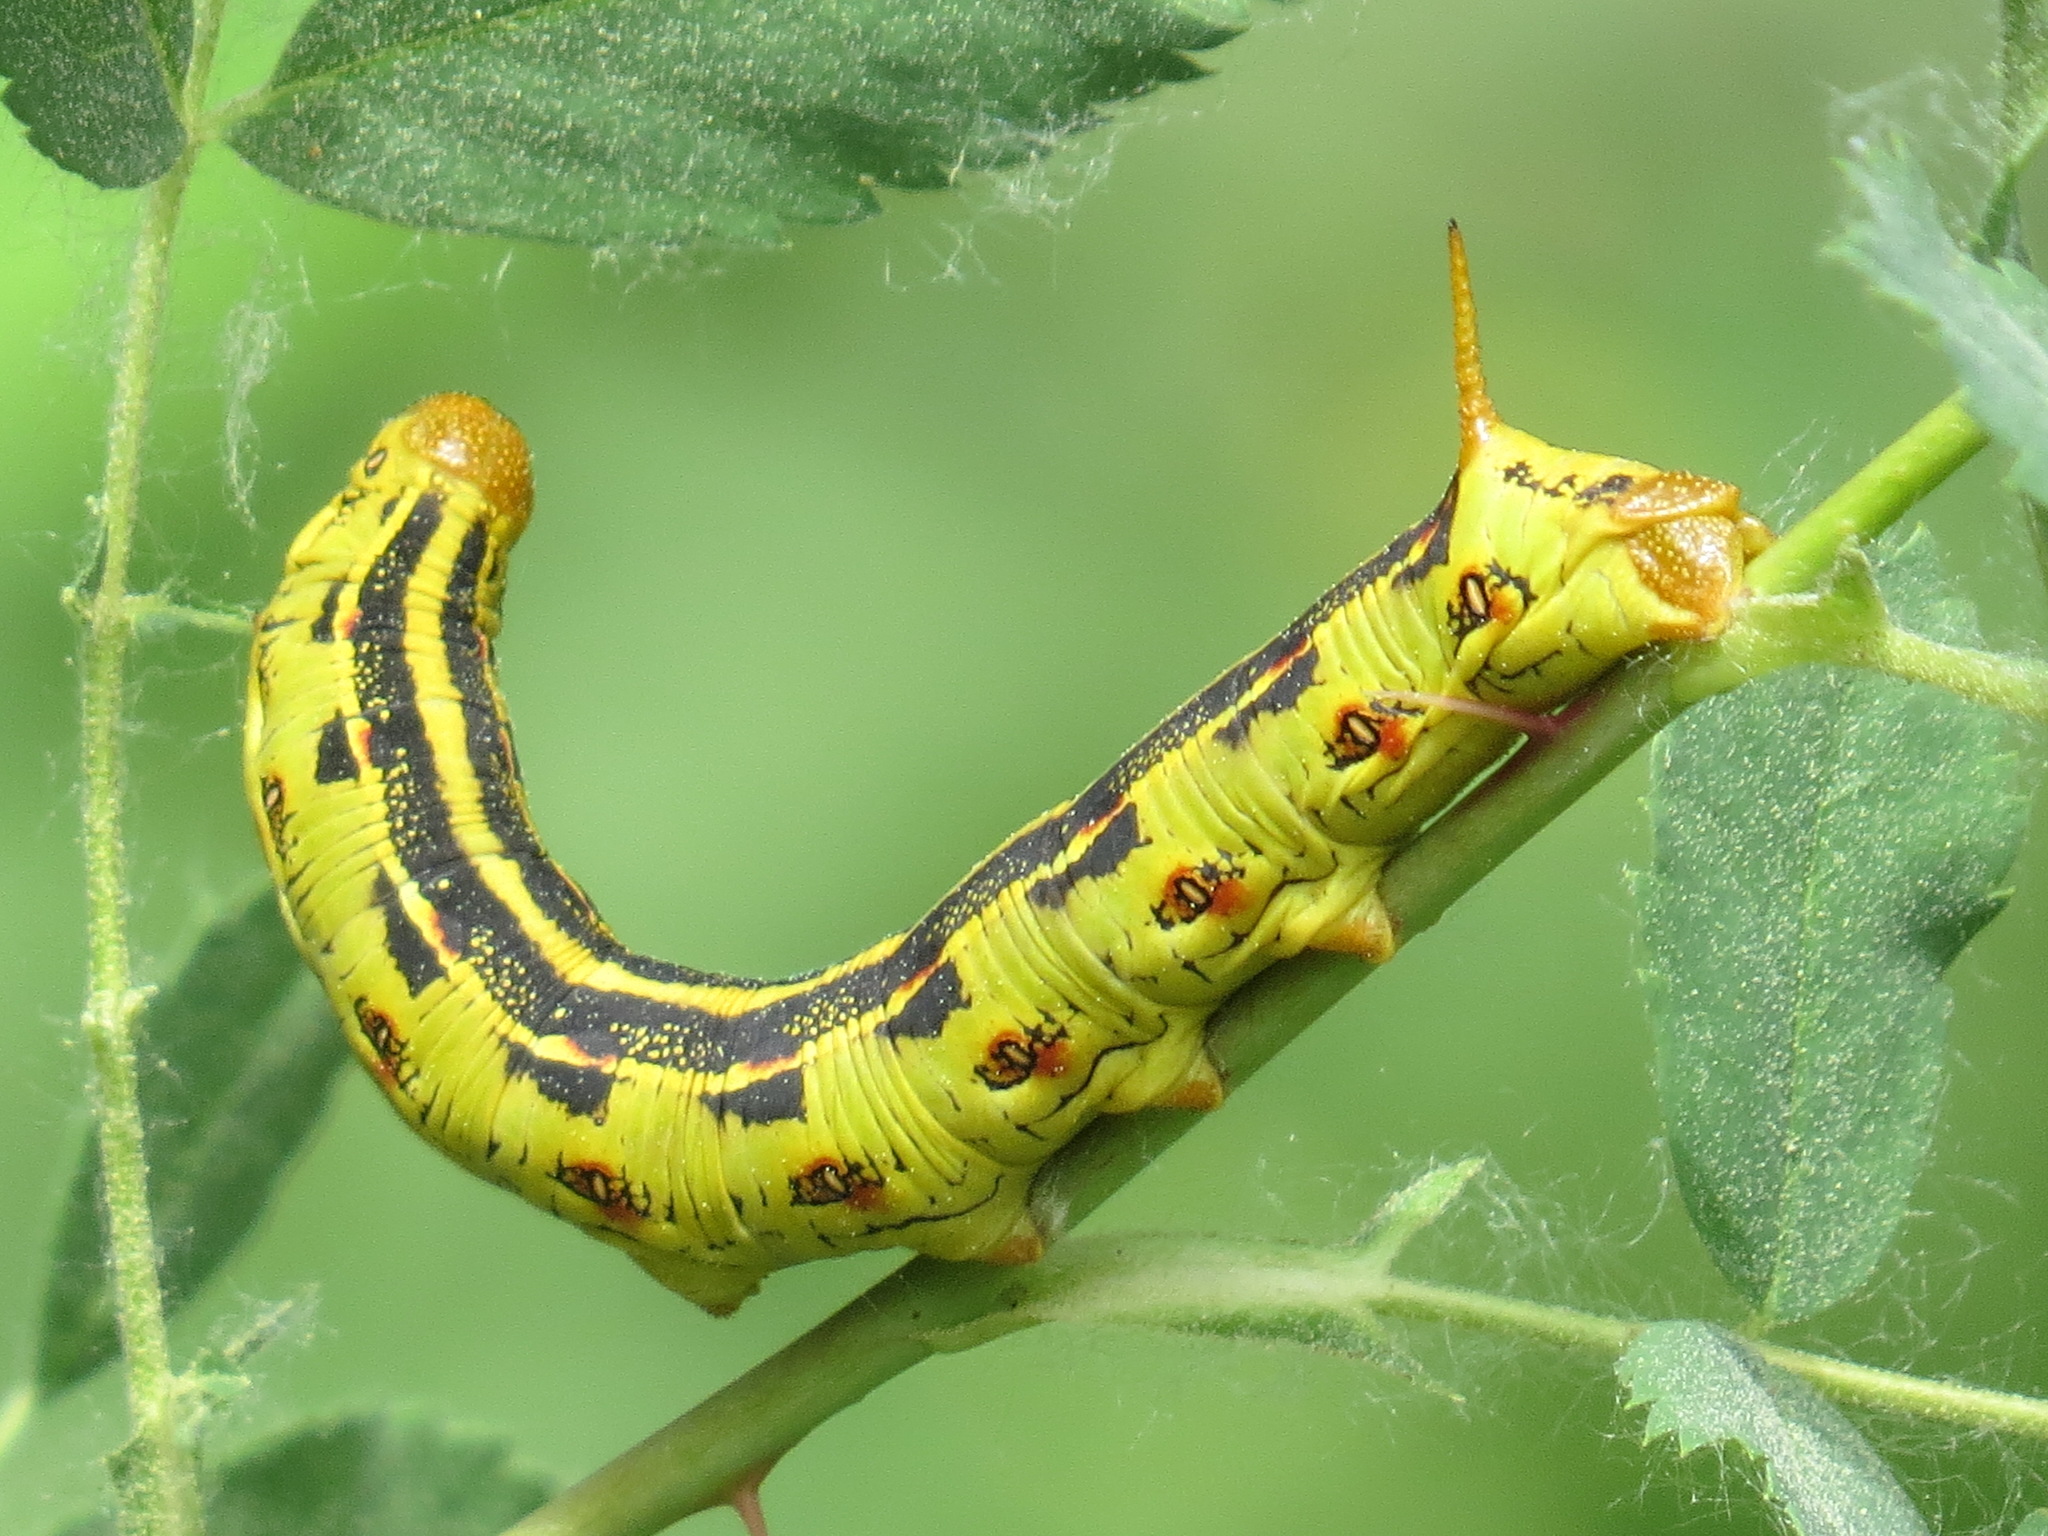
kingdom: Animalia
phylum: Arthropoda
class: Insecta
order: Lepidoptera
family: Sphingidae
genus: Hyles
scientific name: Hyles lineata
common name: White-lined sphinx
